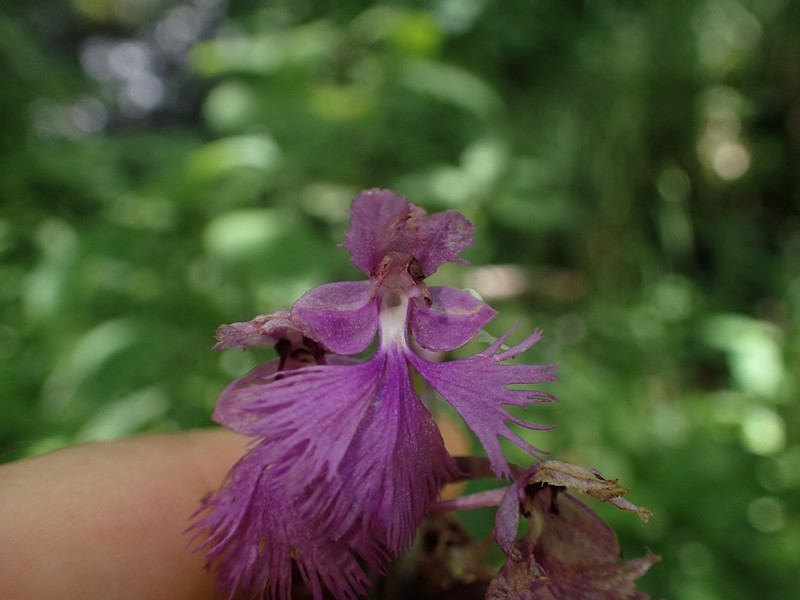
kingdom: Plantae
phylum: Tracheophyta
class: Liliopsida
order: Asparagales
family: Orchidaceae
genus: Platanthera
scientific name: Platanthera grandiflora
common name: Greater purple fringed orchid
